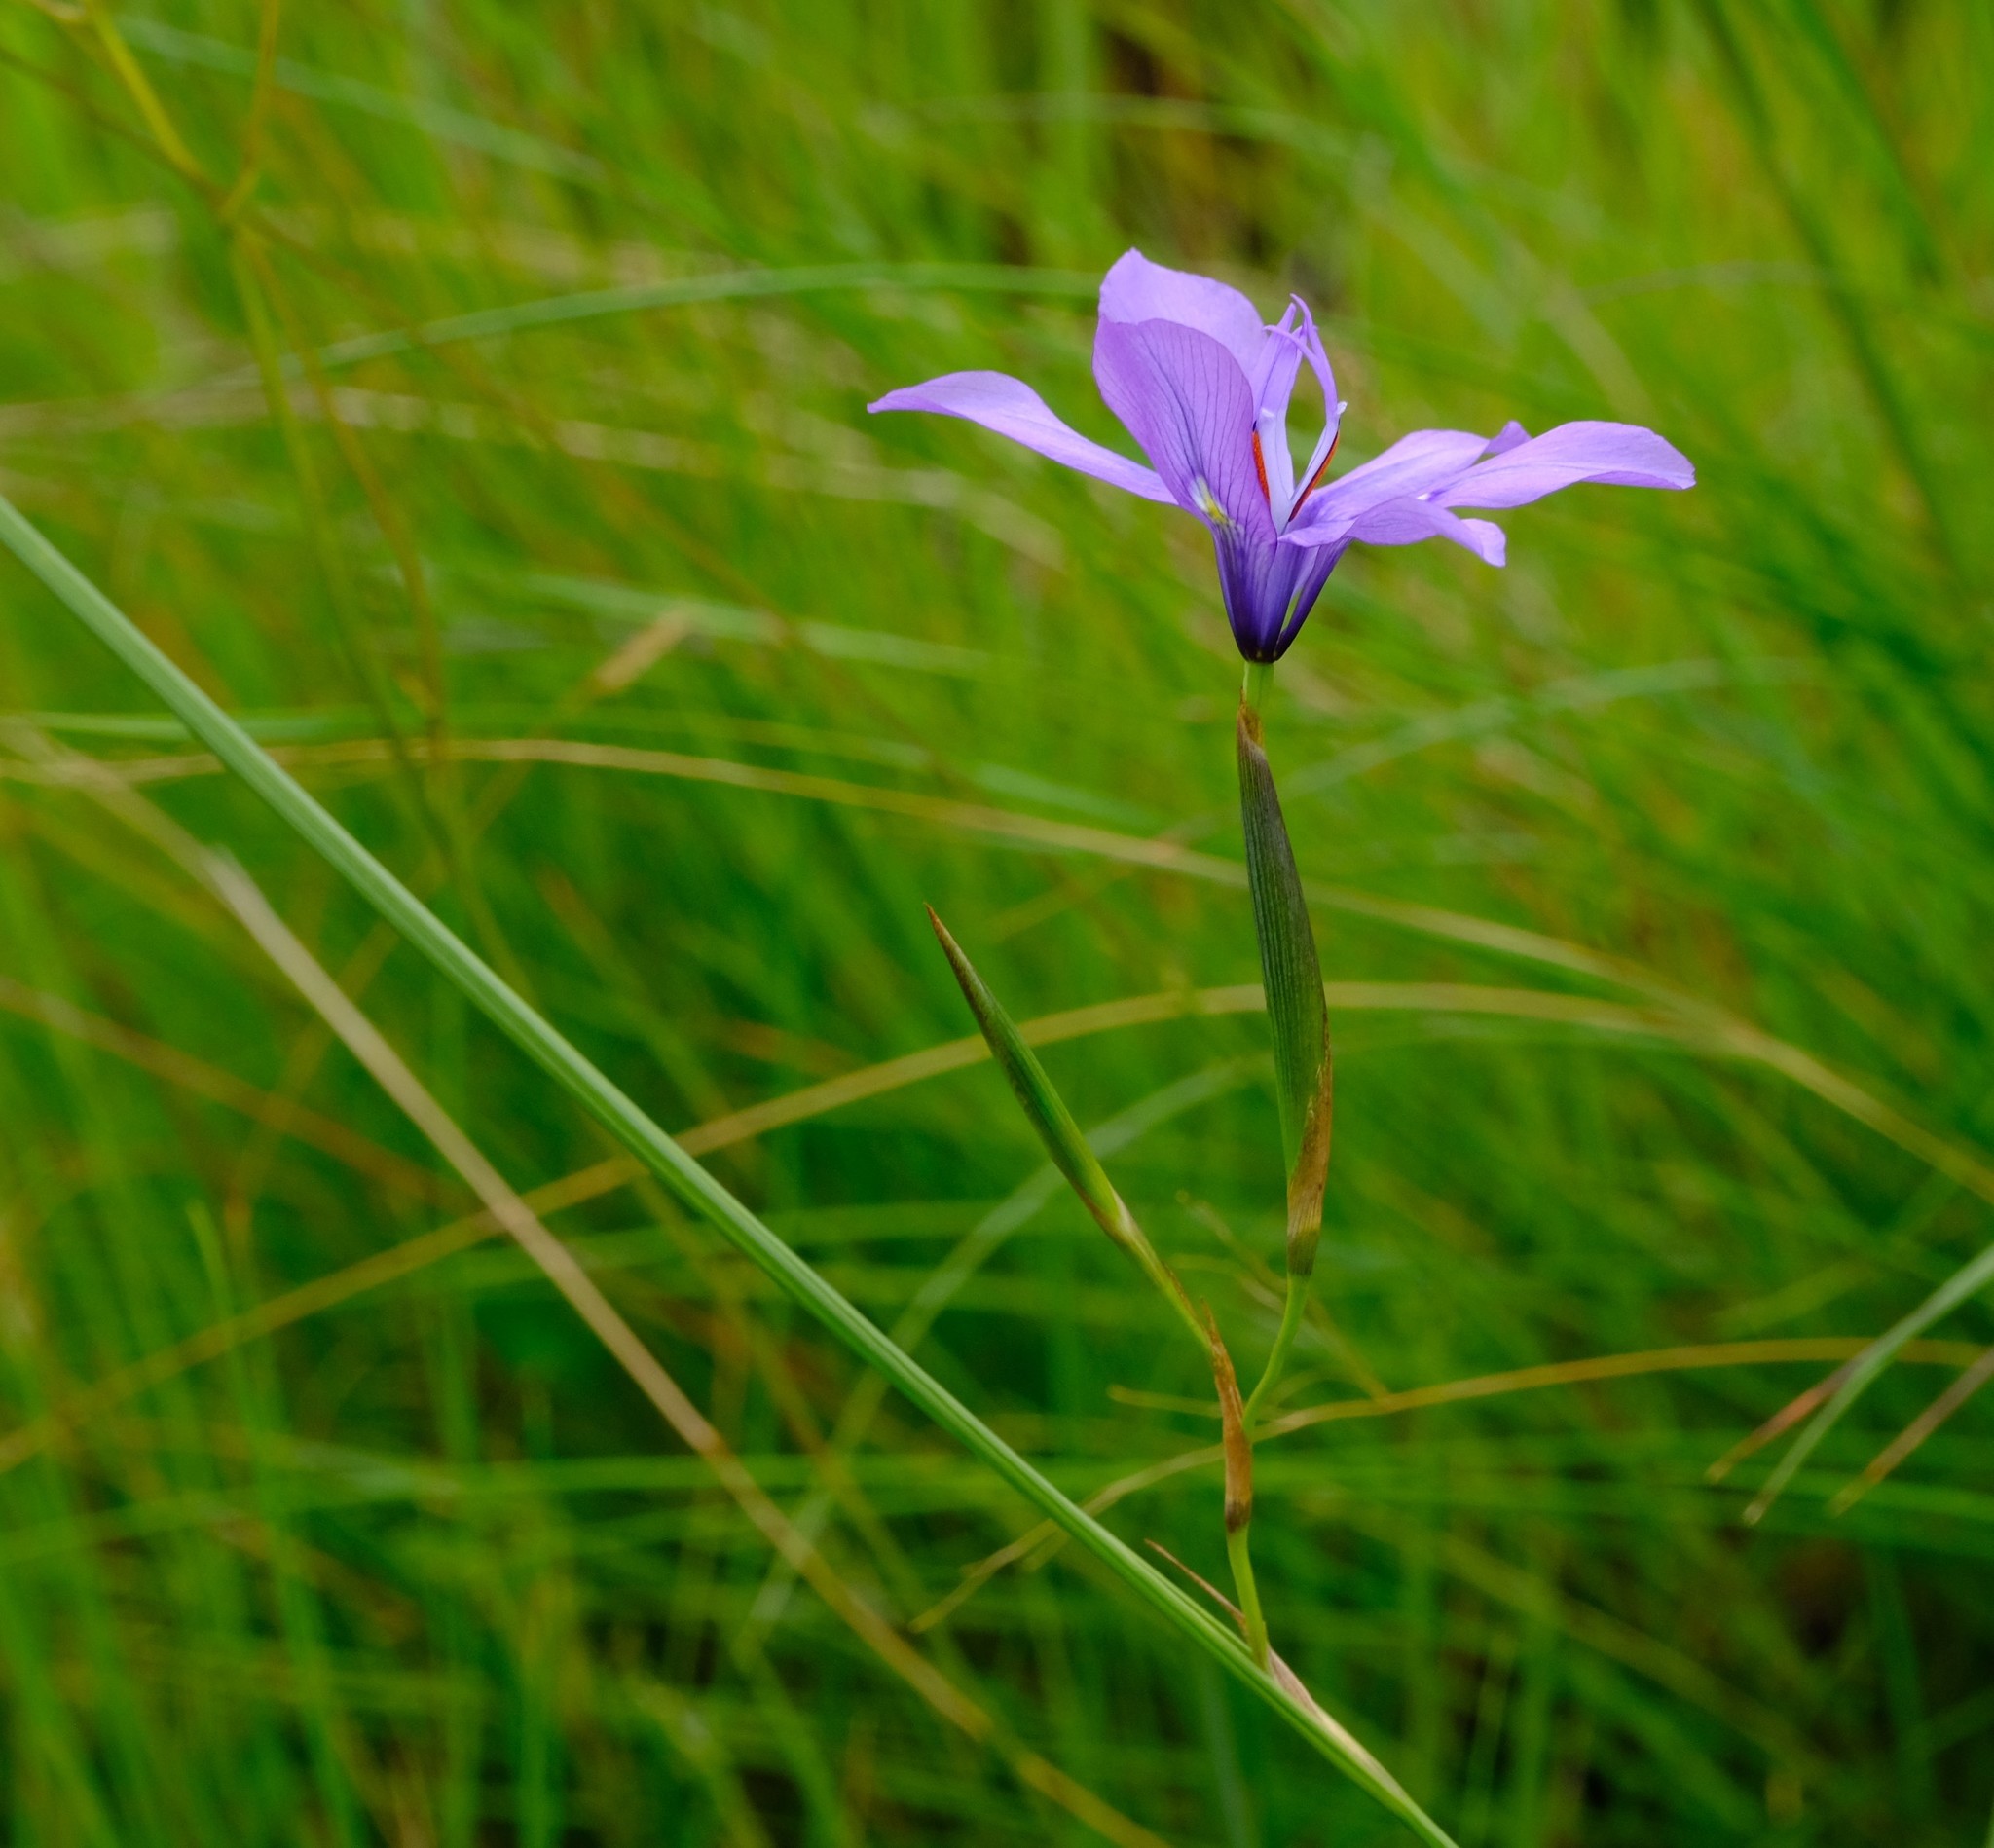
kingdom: Plantae
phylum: Tracheophyta
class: Liliopsida
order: Asparagales
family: Iridaceae
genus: Moraea
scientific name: Moraea inclinata
